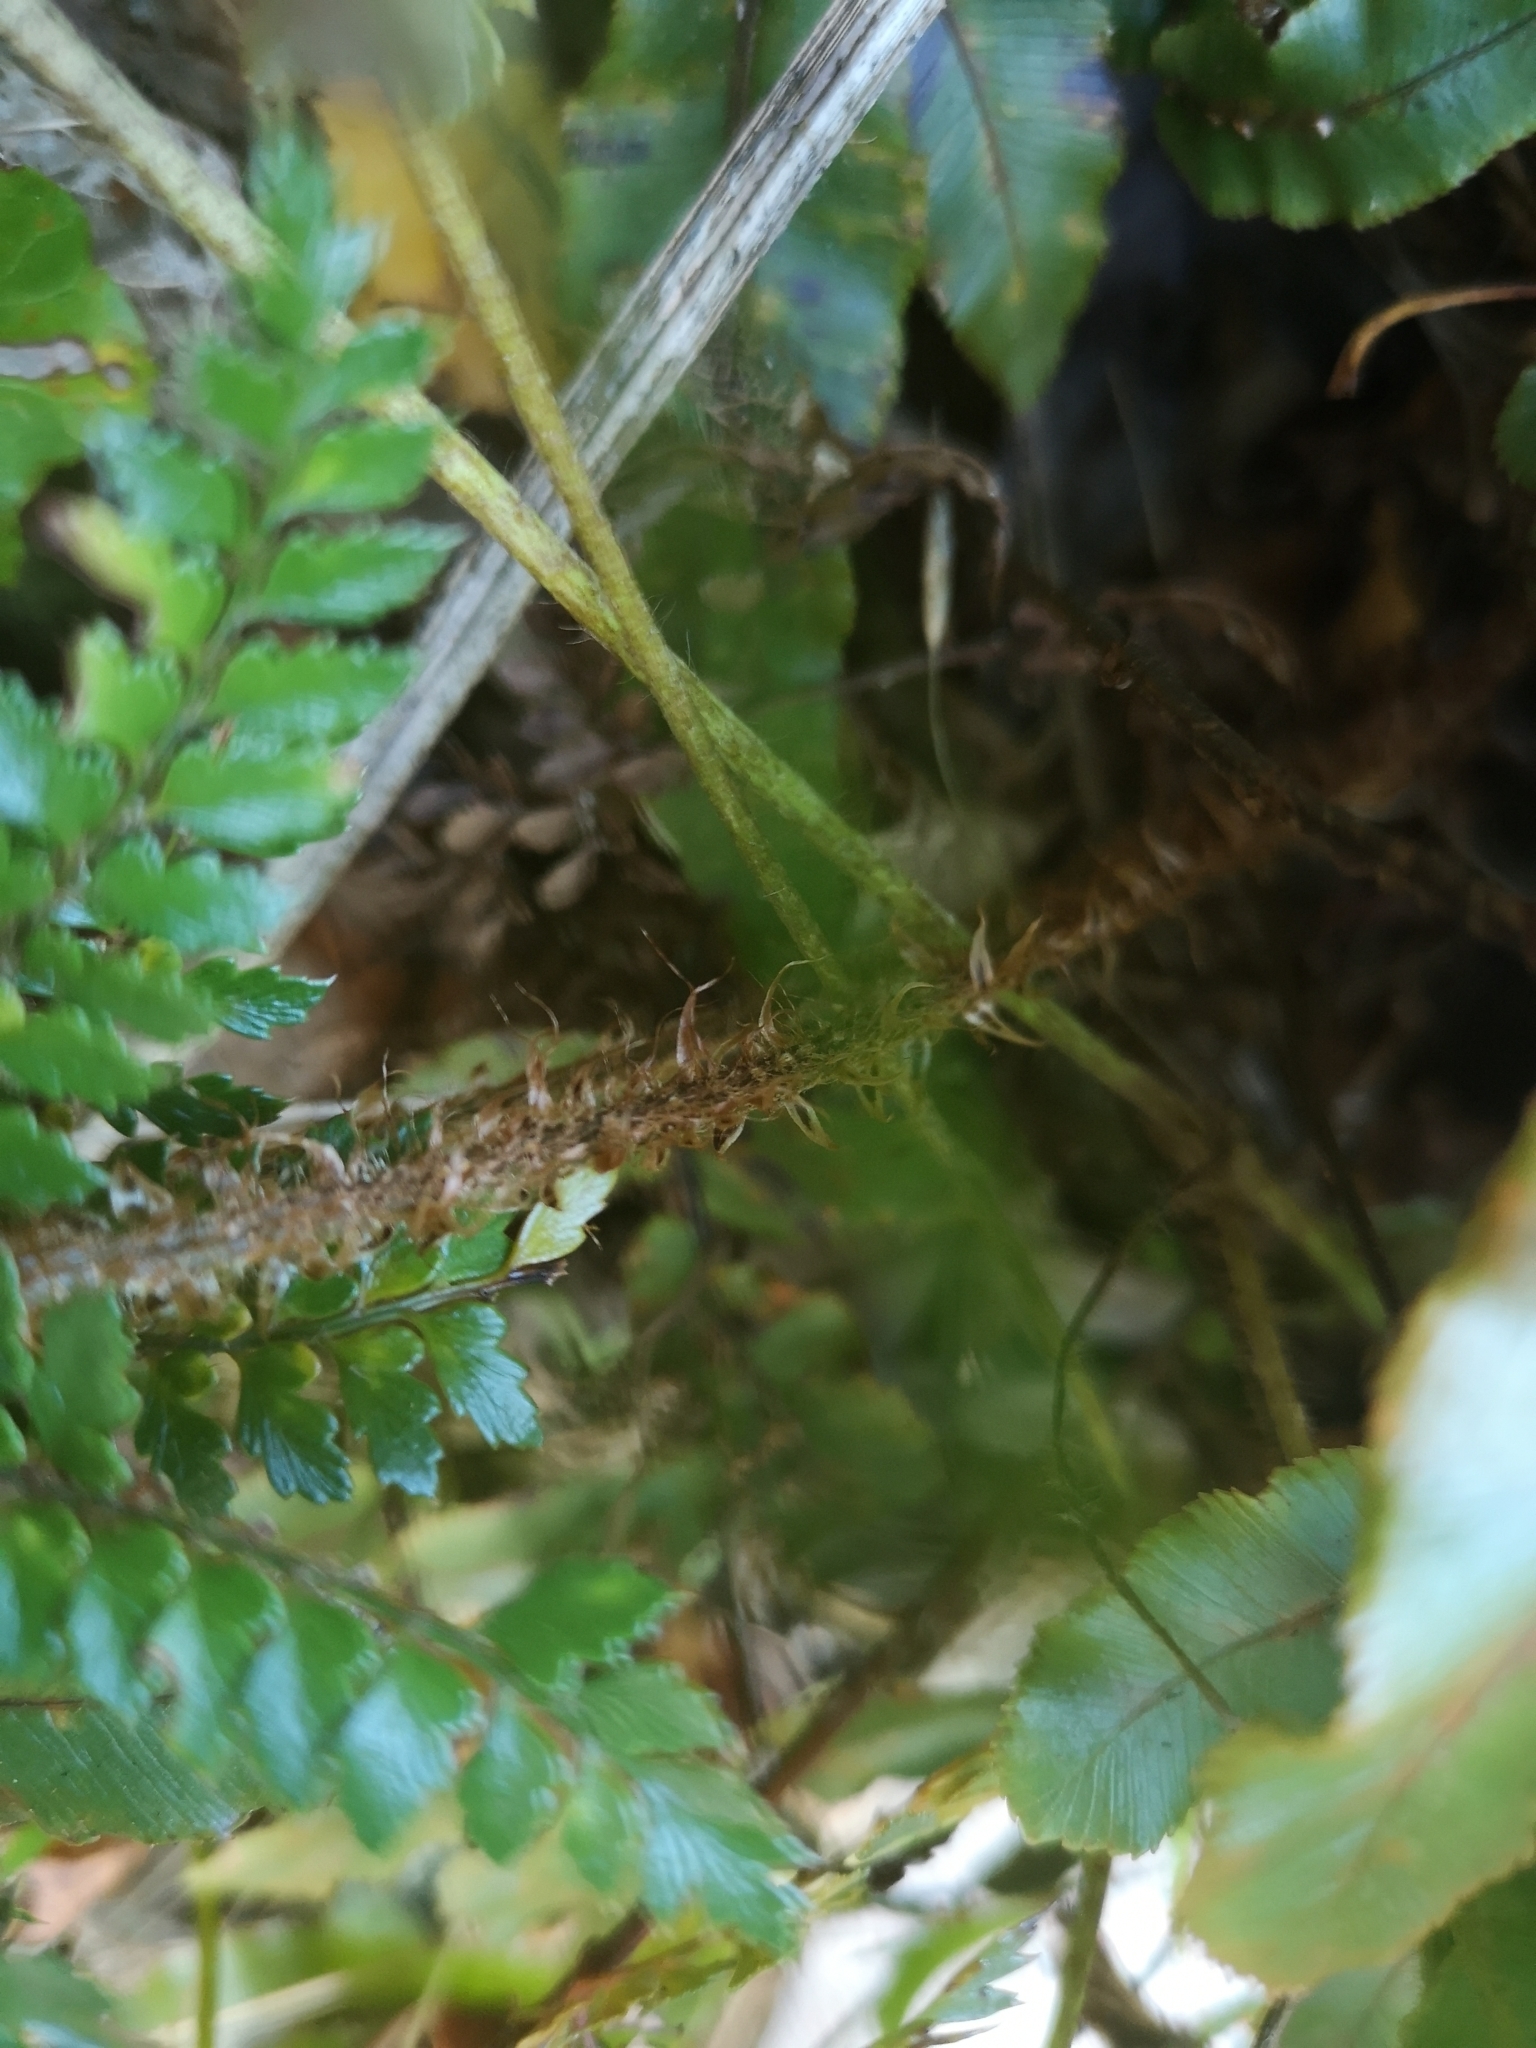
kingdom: Plantae
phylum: Tracheophyta
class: Polypodiopsida
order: Polypodiales
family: Dryopteridaceae
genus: Polystichum
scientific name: Polystichum vestitum
